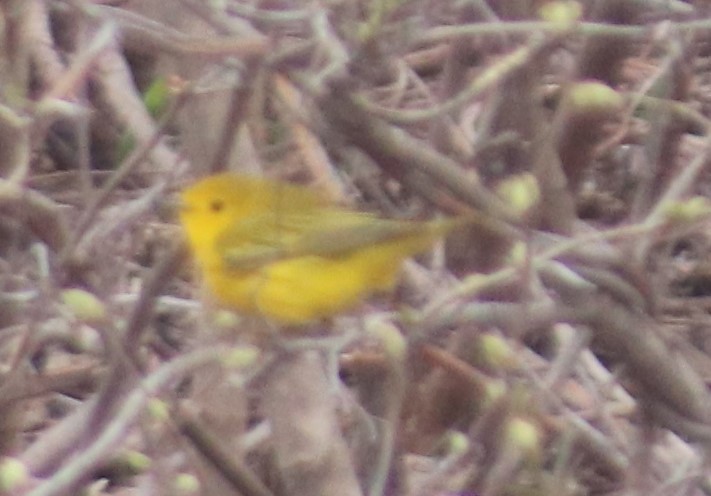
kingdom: Animalia
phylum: Chordata
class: Aves
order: Passeriformes
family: Parulidae
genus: Setophaga
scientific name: Setophaga petechia
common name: Yellow warbler
